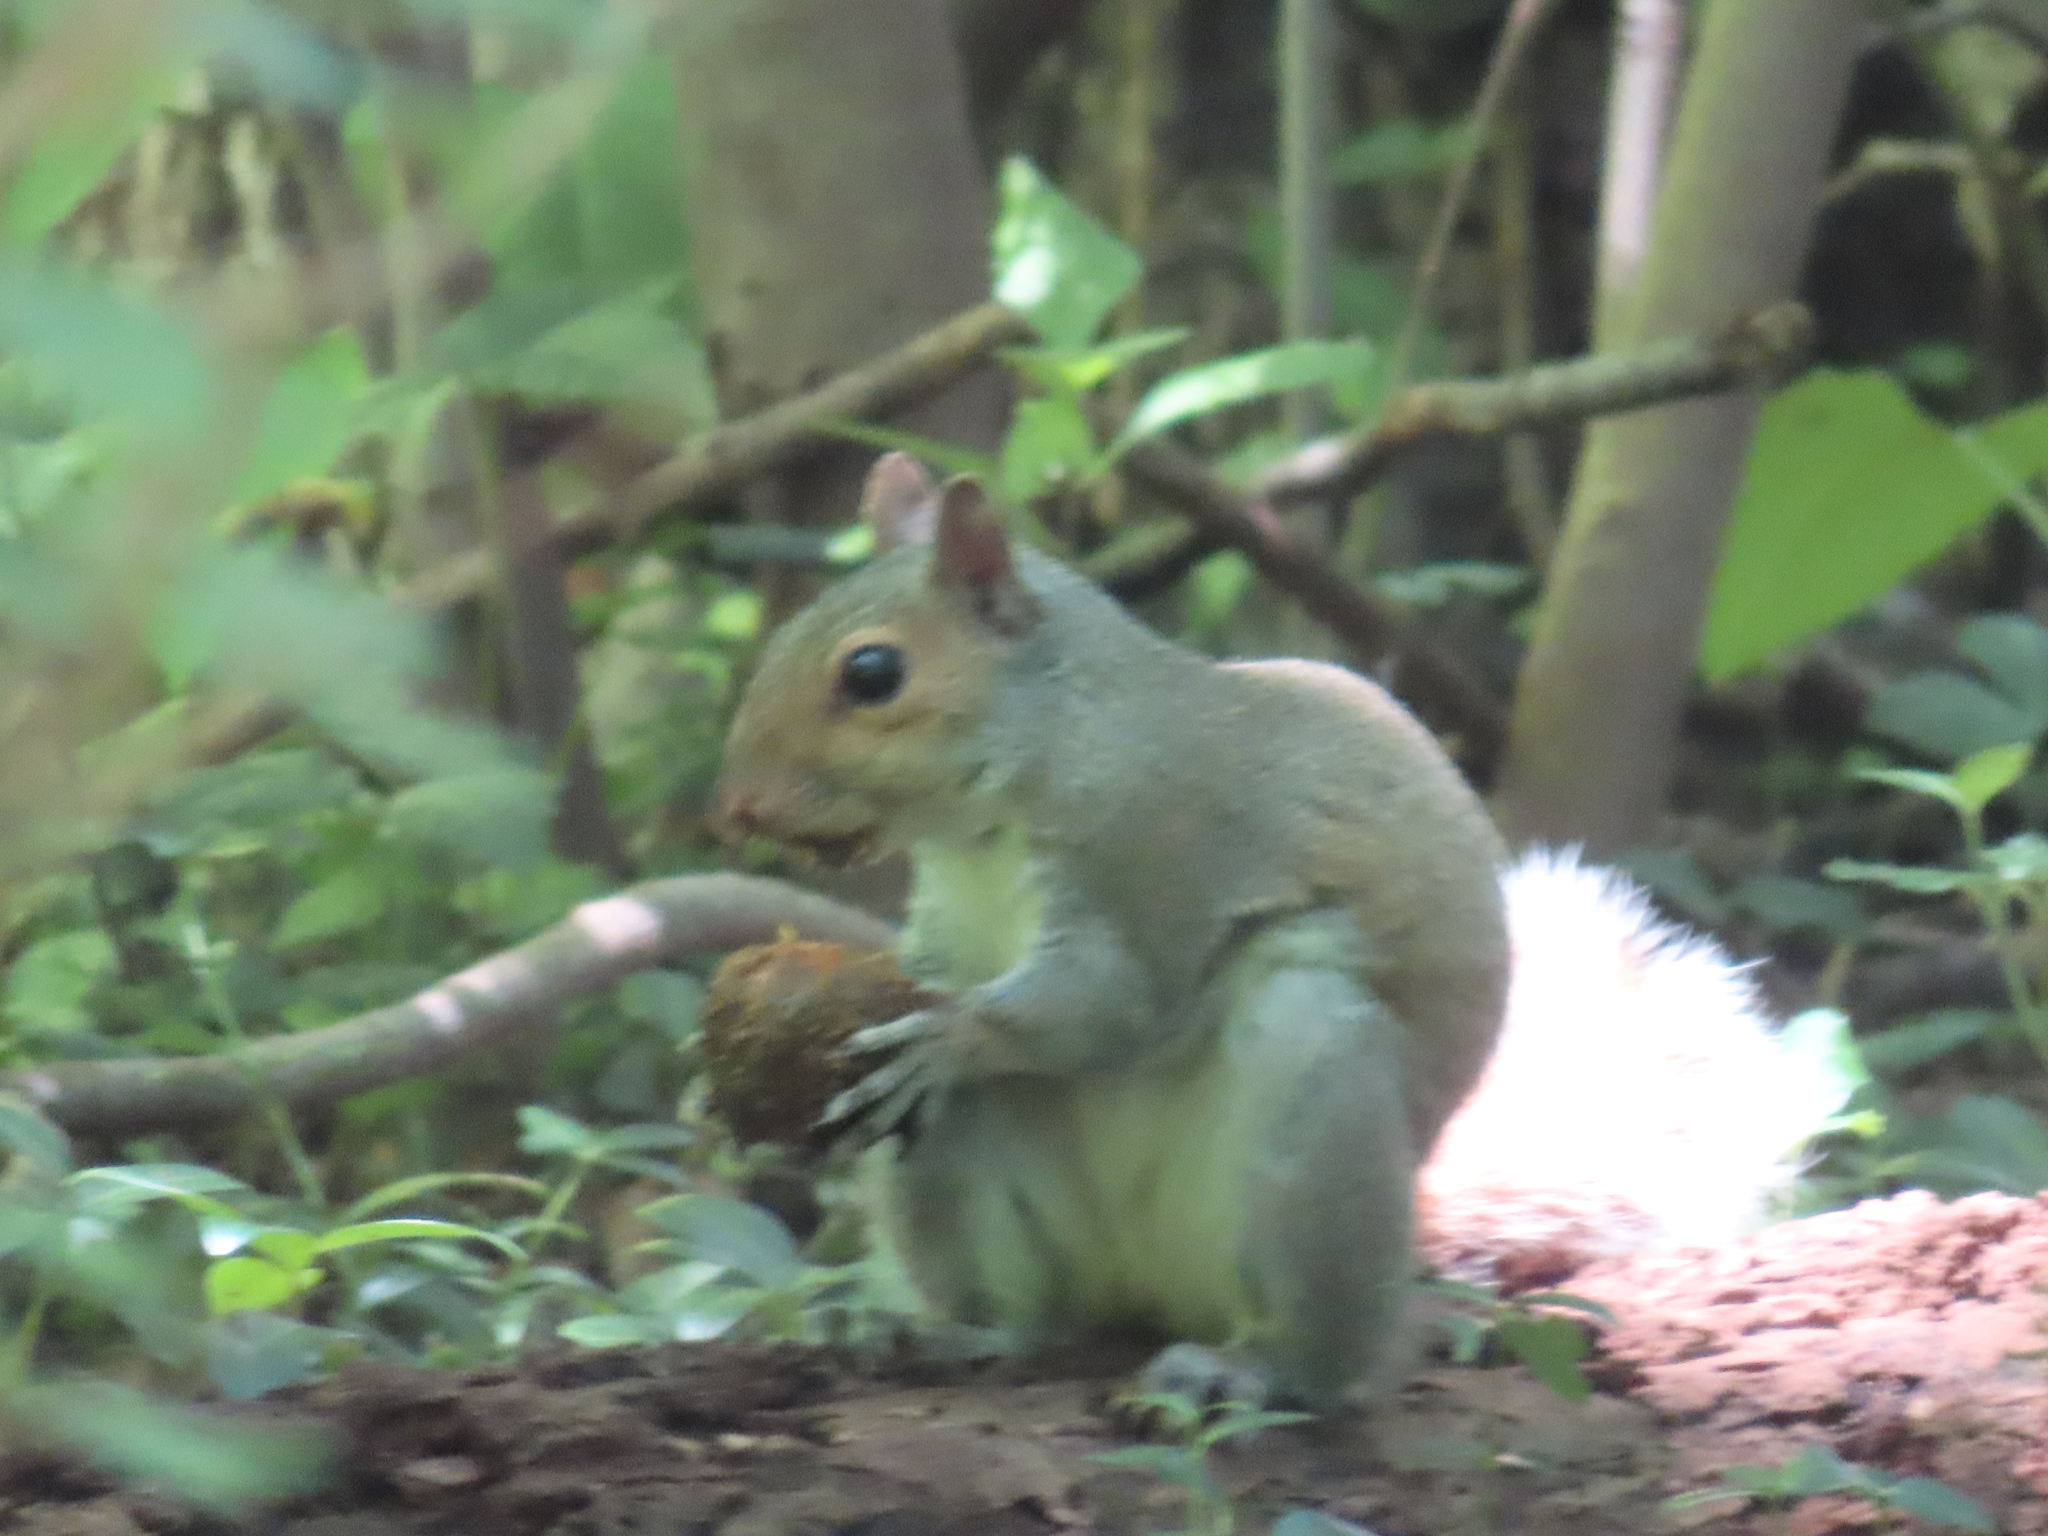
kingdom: Animalia
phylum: Chordata
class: Mammalia
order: Rodentia
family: Sciuridae
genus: Sciurus
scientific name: Sciurus carolinensis
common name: Eastern gray squirrel
